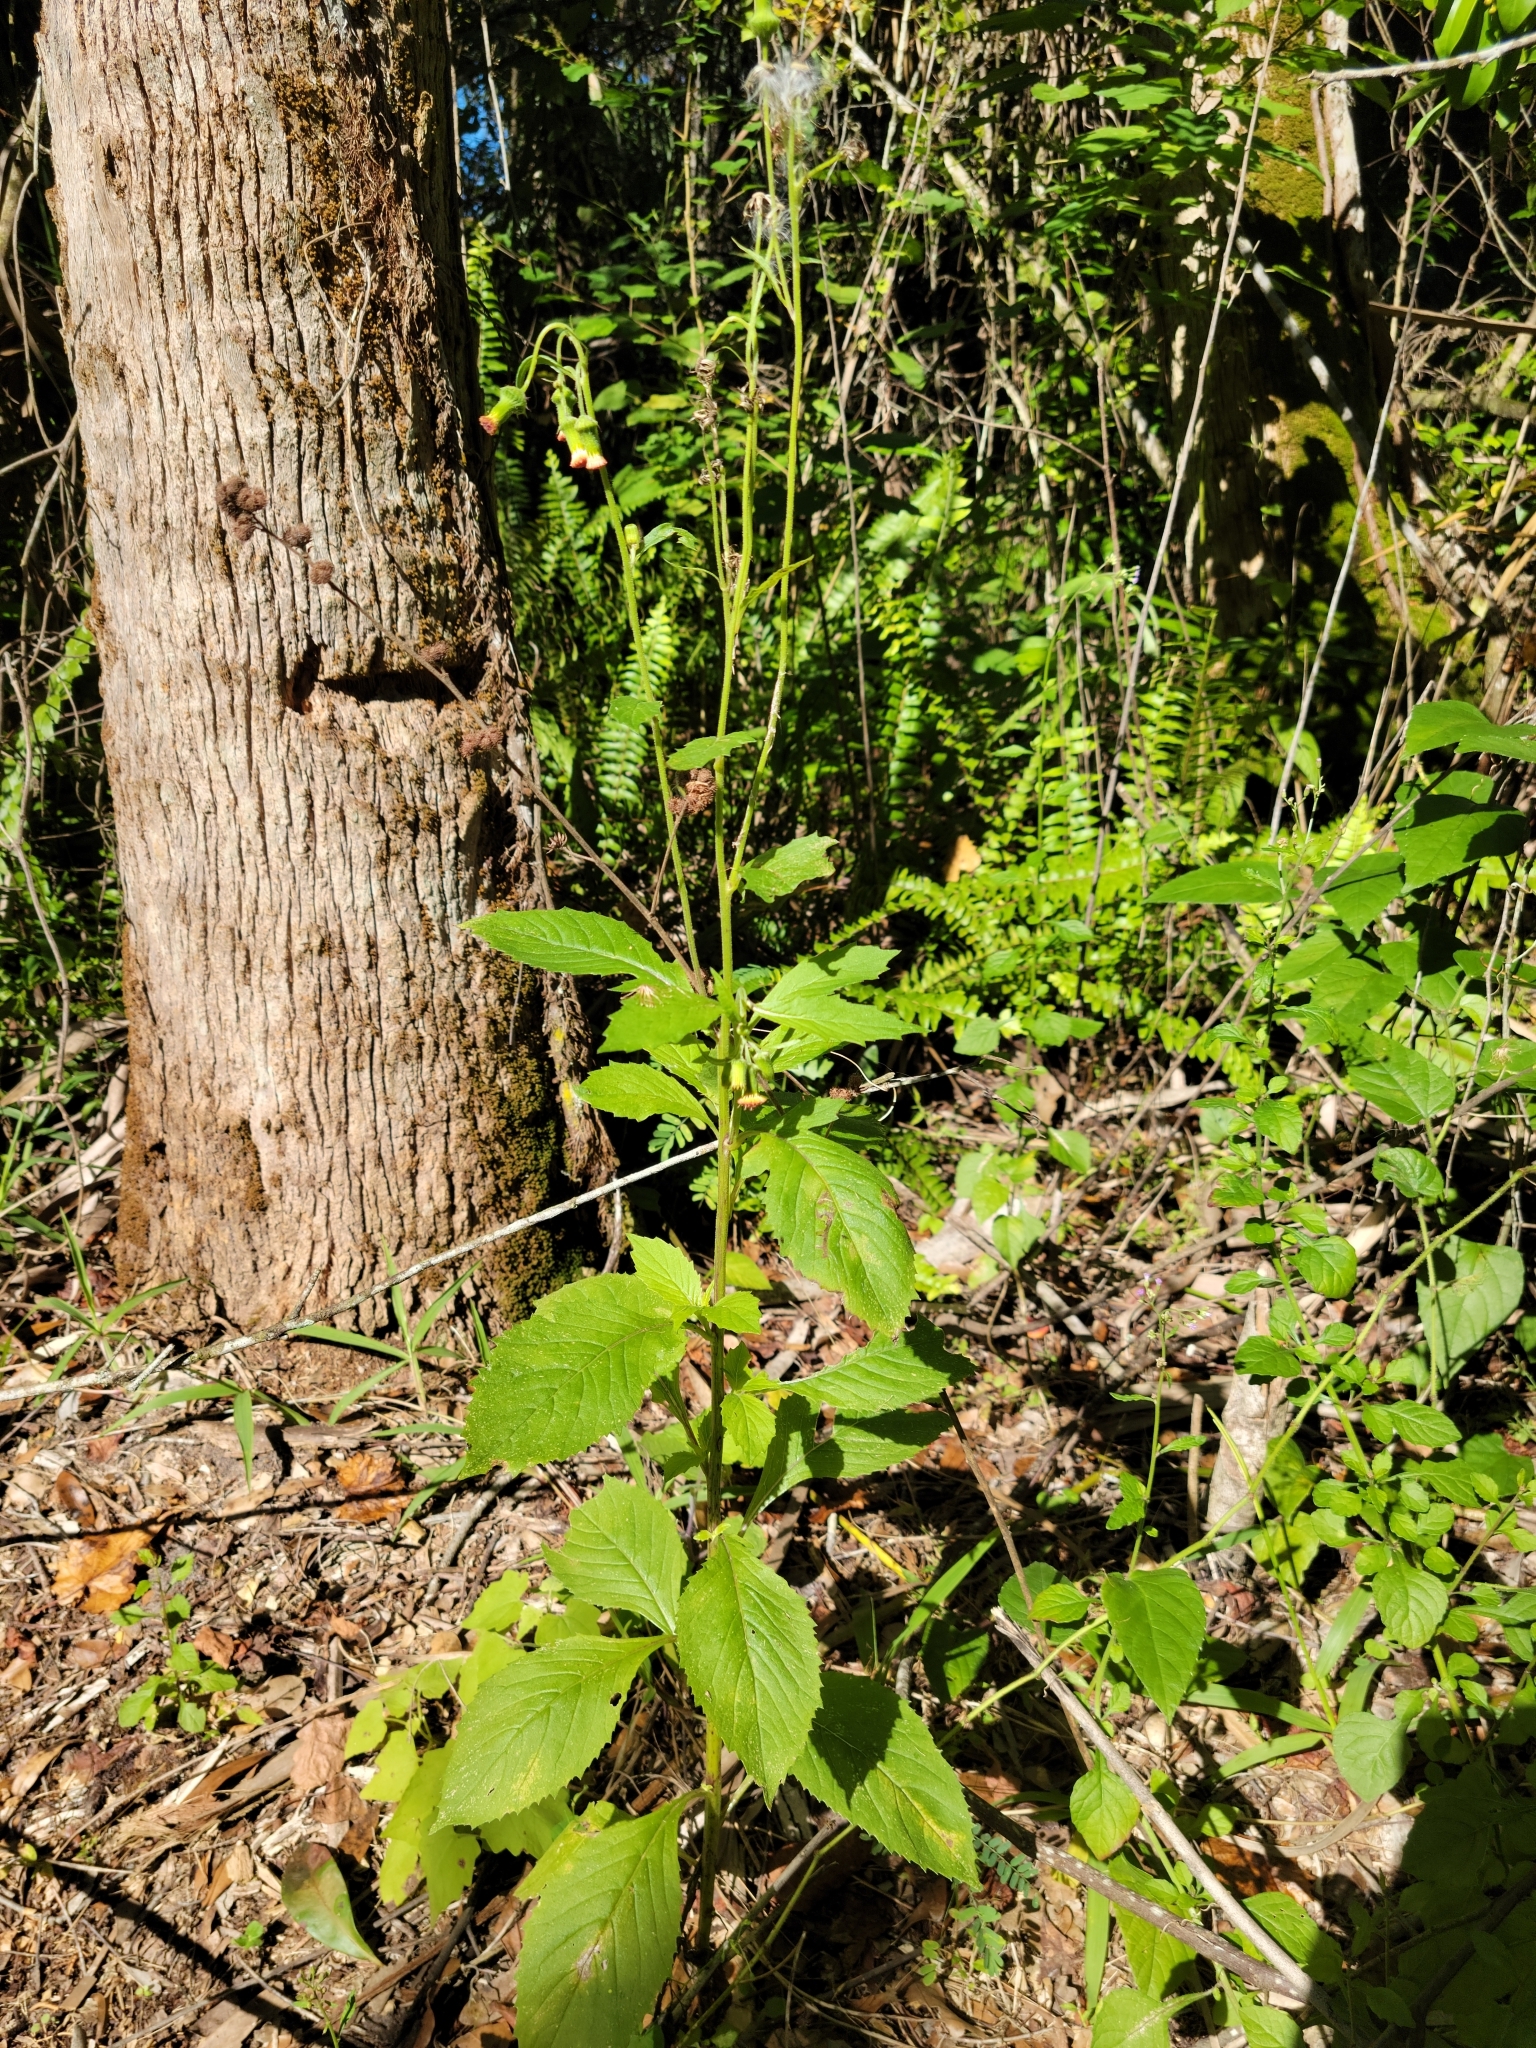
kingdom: Plantae
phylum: Tracheophyta
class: Magnoliopsida
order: Asterales
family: Asteraceae
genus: Crassocephalum
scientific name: Crassocephalum crepidioides
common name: Redflower ragleaf
